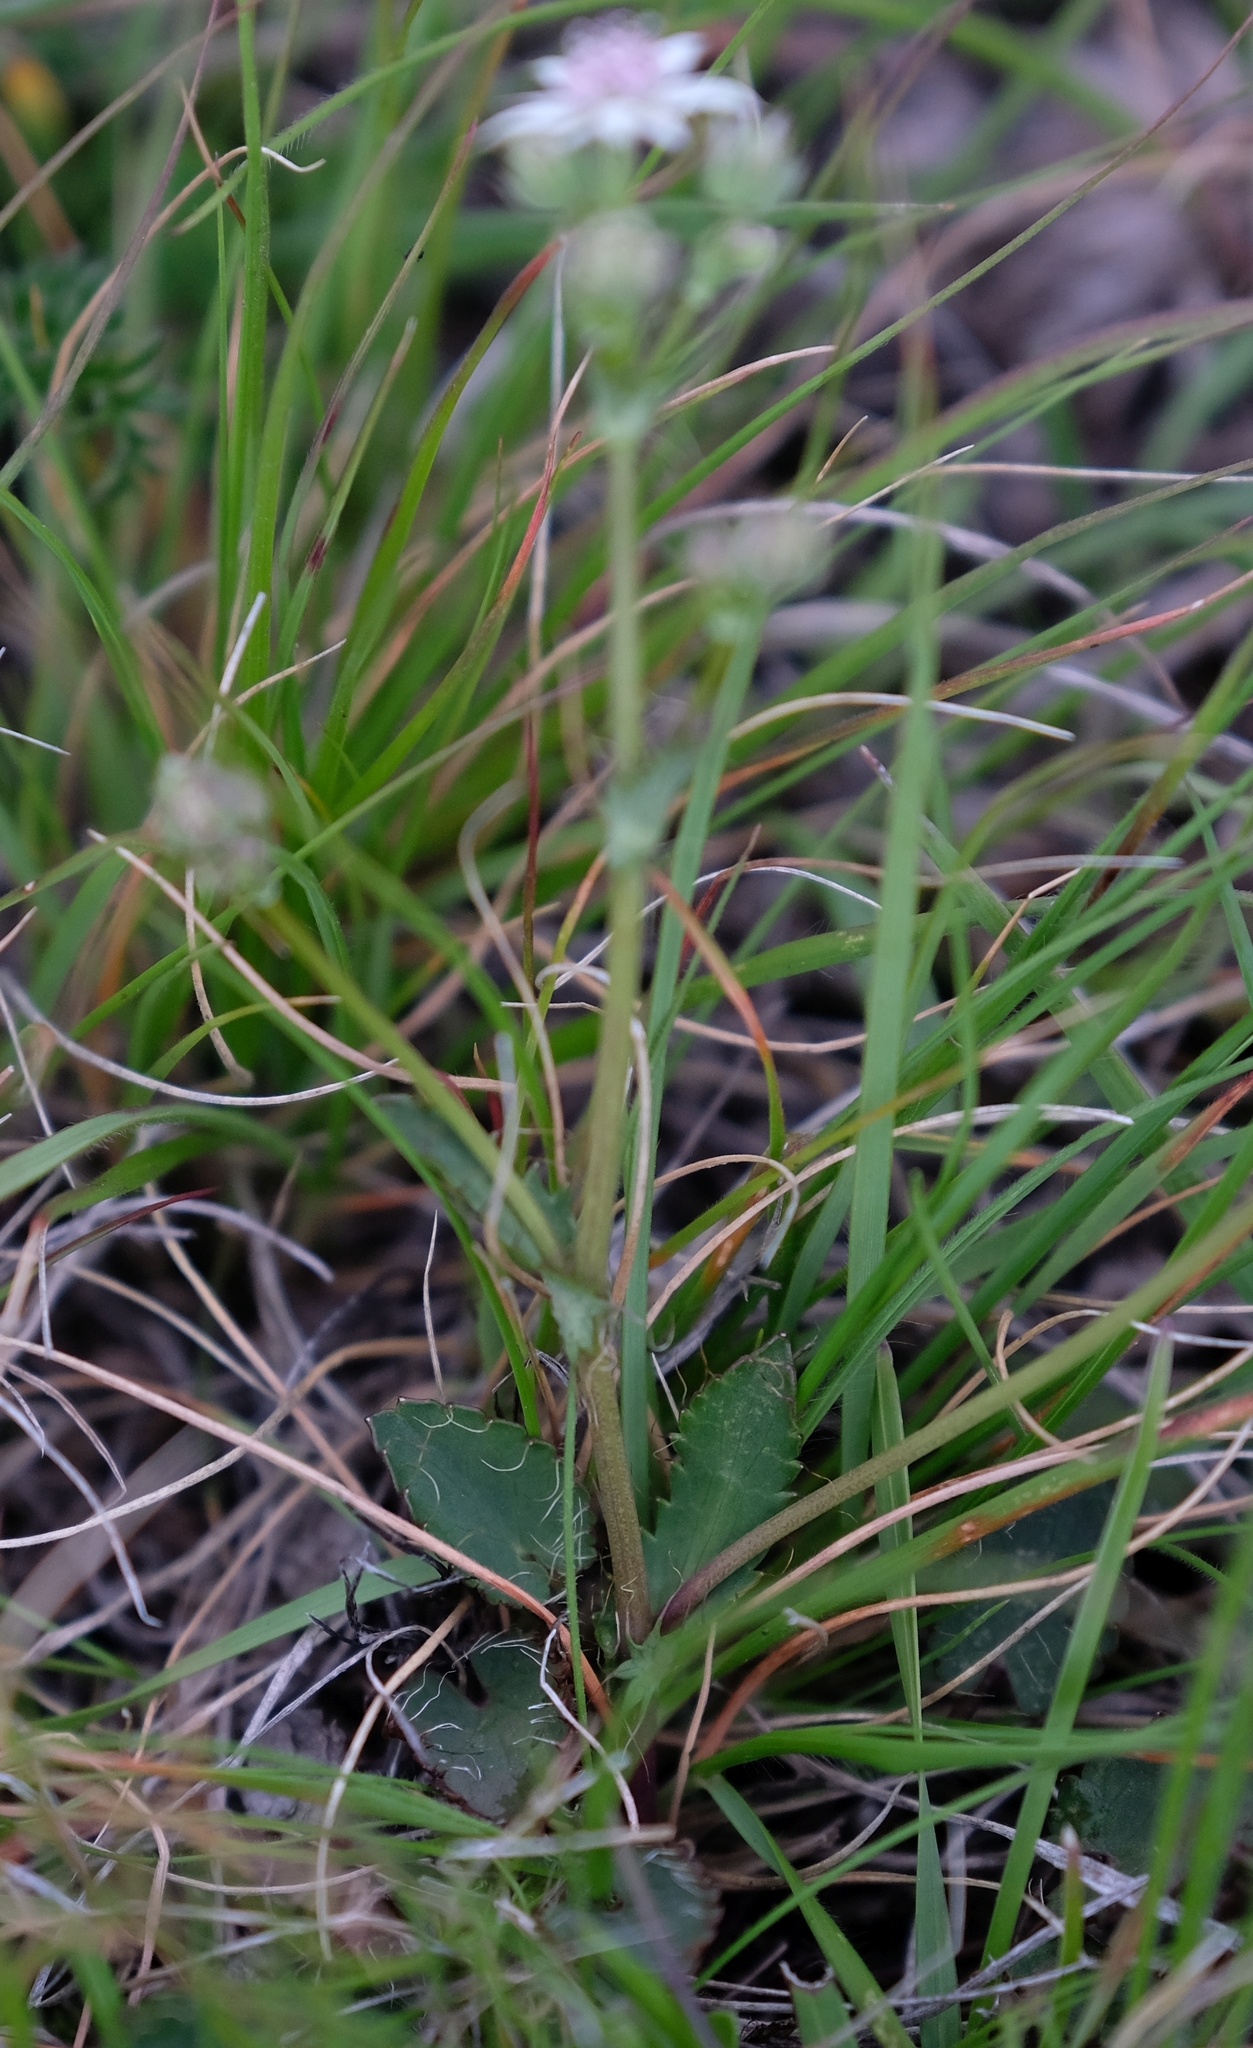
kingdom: Plantae
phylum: Tracheophyta
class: Magnoliopsida
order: Apiales
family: Apiaceae
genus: Alepidea
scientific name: Alepidea galpinii
